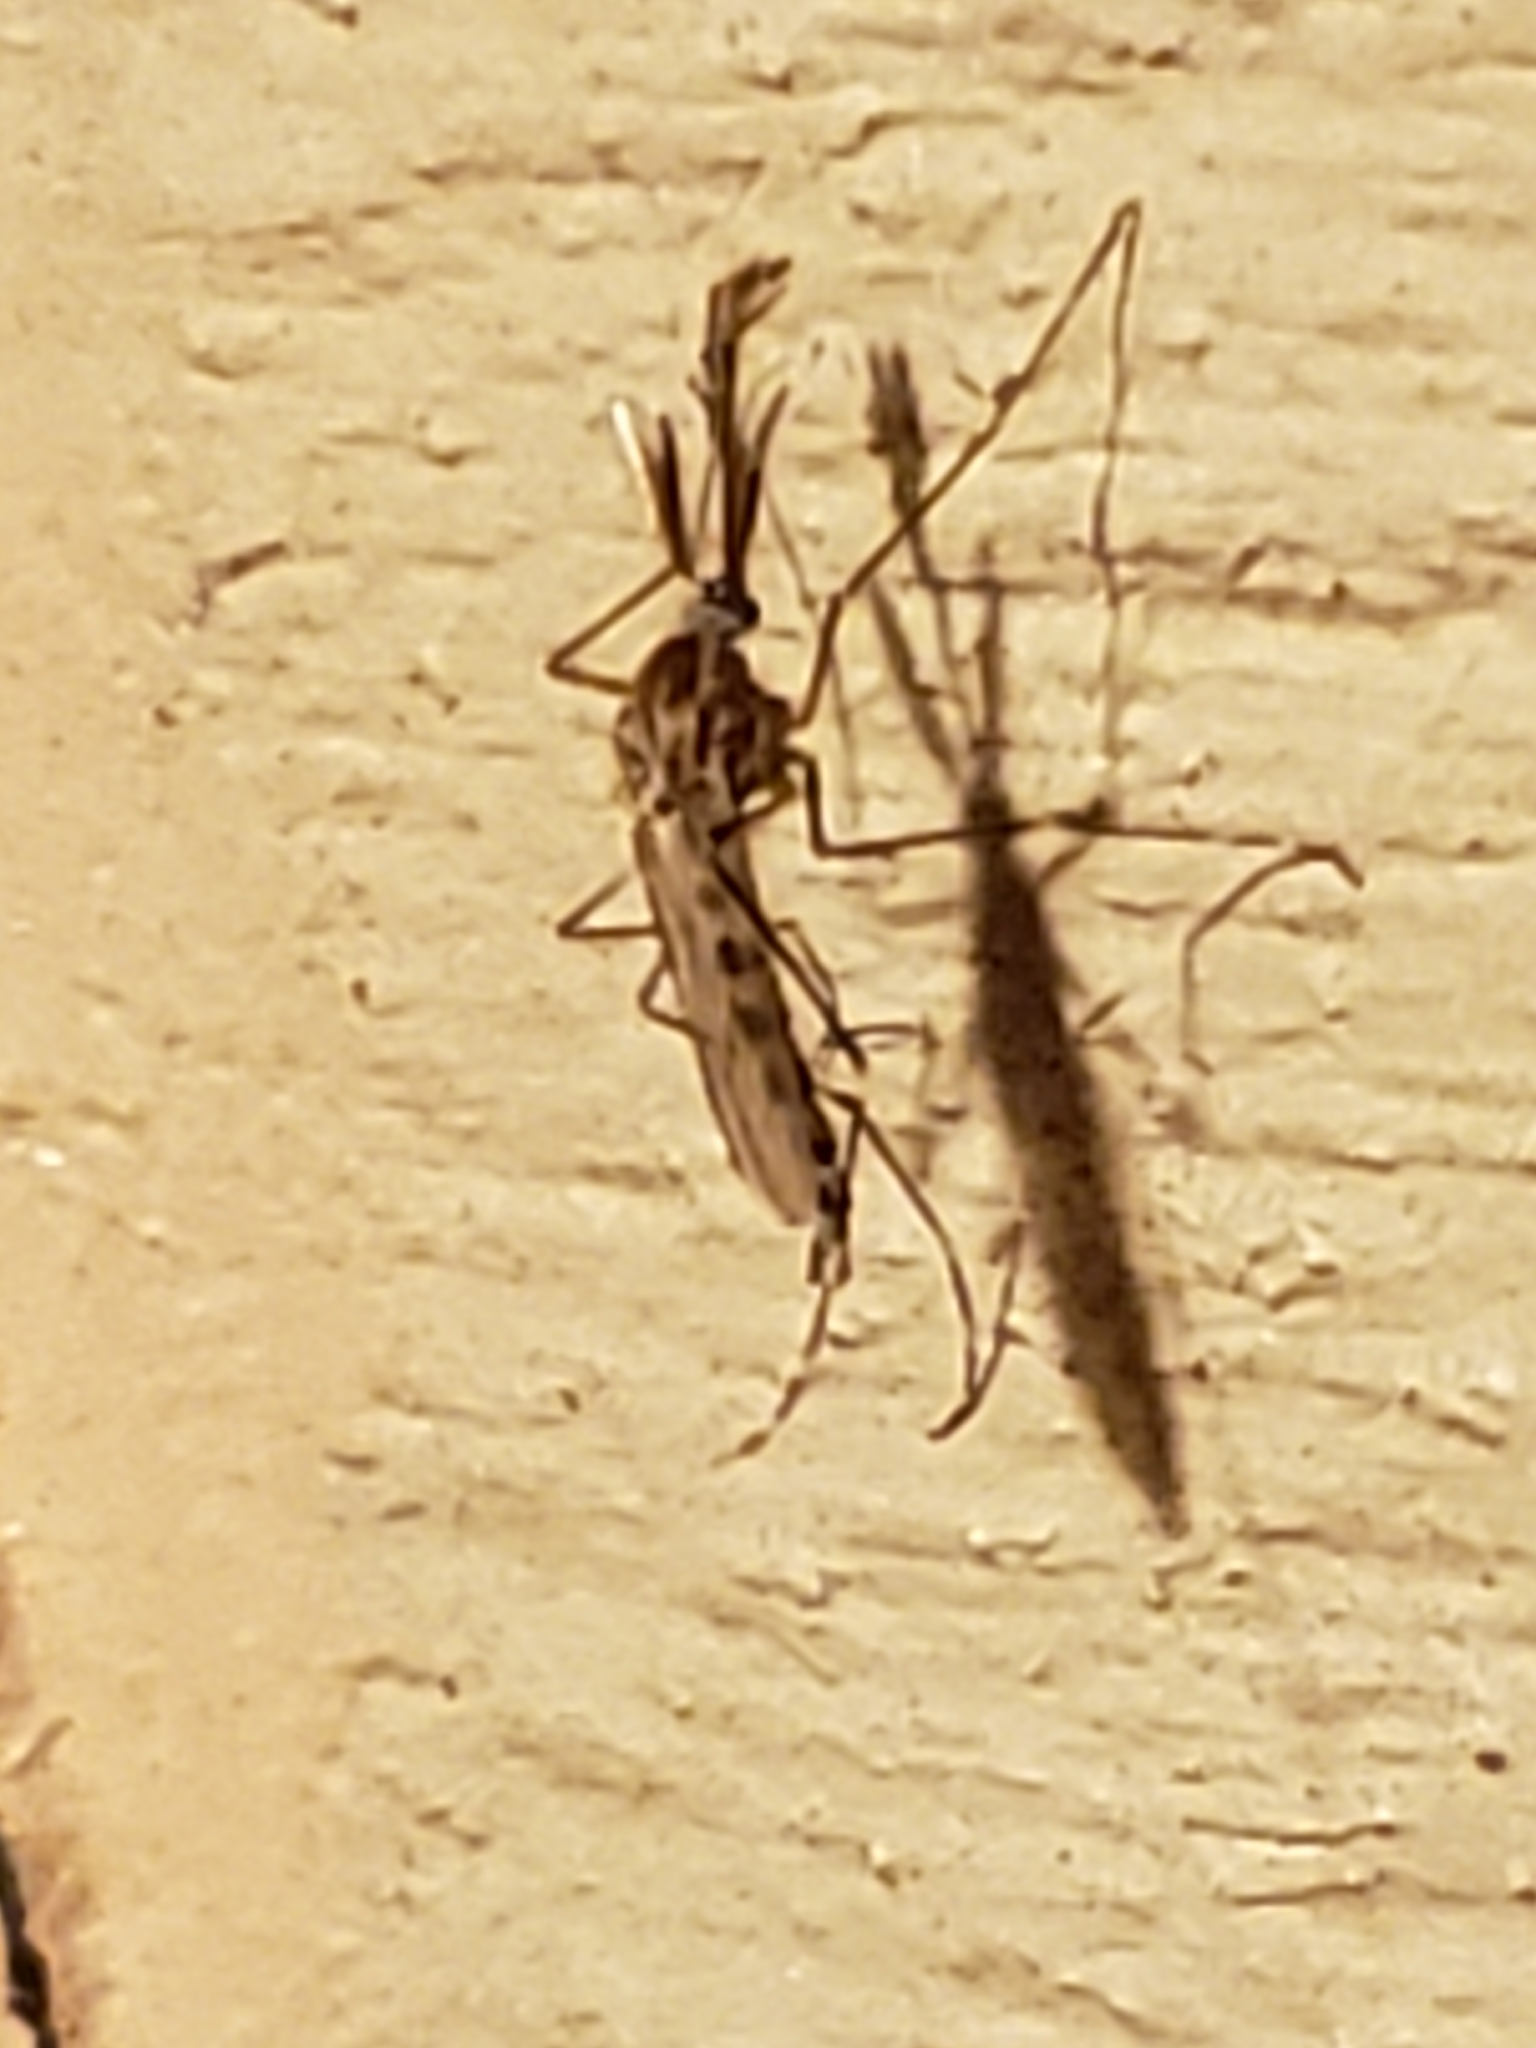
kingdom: Animalia
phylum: Arthropoda
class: Insecta
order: Diptera
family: Culicidae
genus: Aedes
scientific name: Aedes canadensis
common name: Woodland pool mosquito
